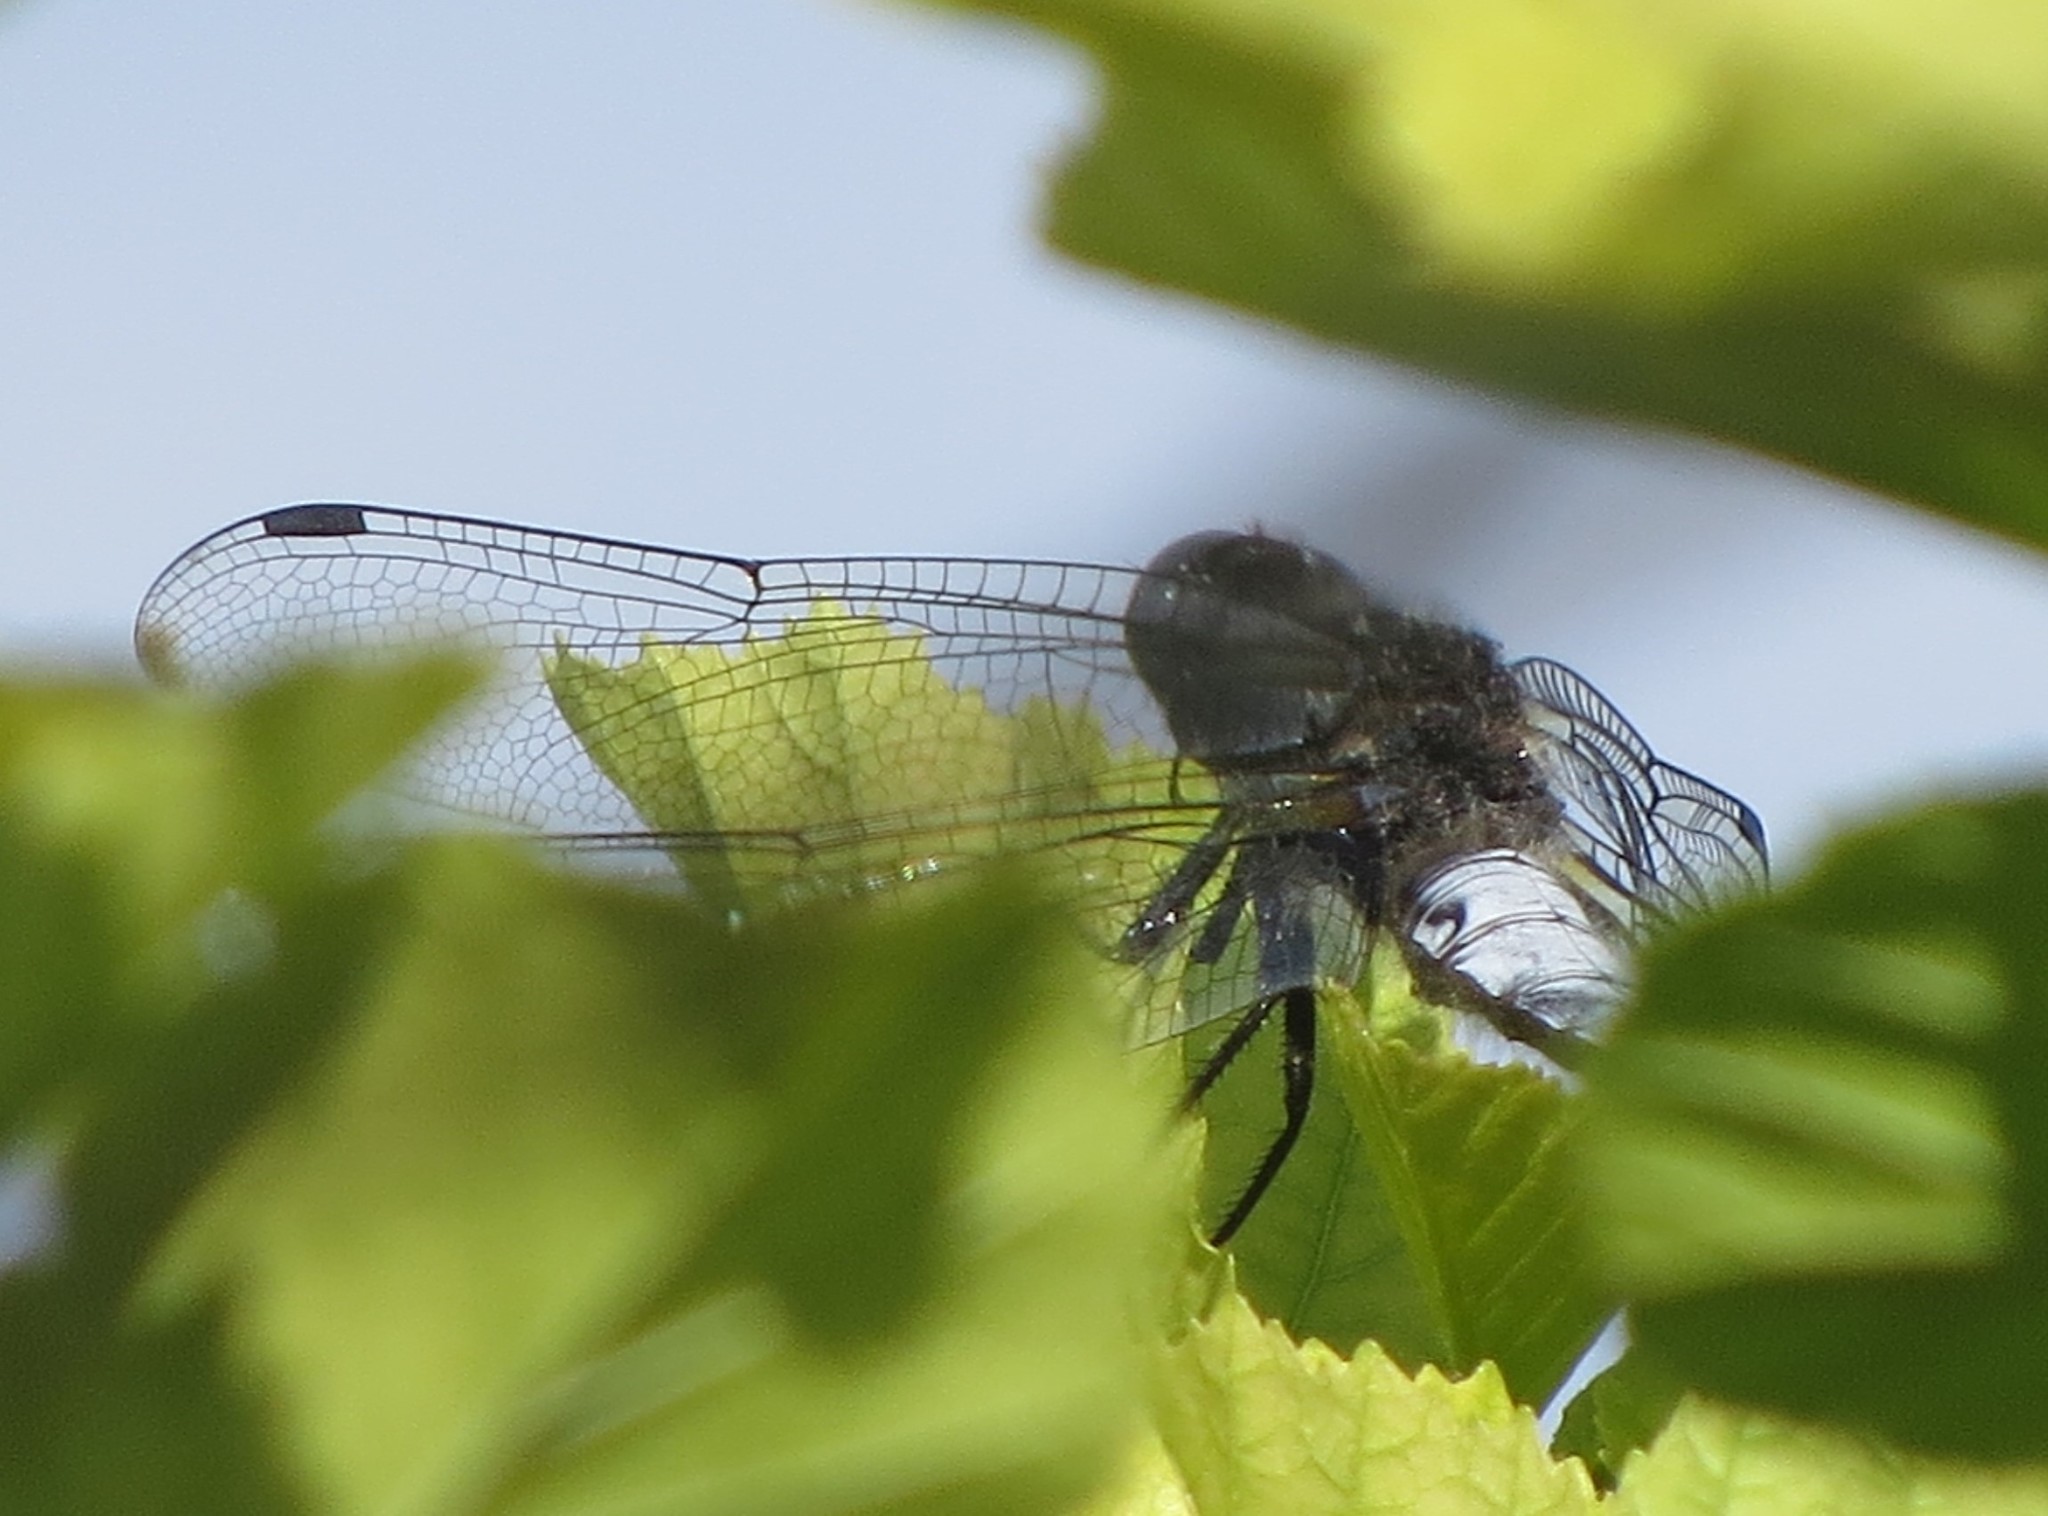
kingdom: Animalia
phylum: Arthropoda
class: Insecta
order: Odonata
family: Libellulidae
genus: Libellula
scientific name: Libellula fulva
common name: Blue chaser
